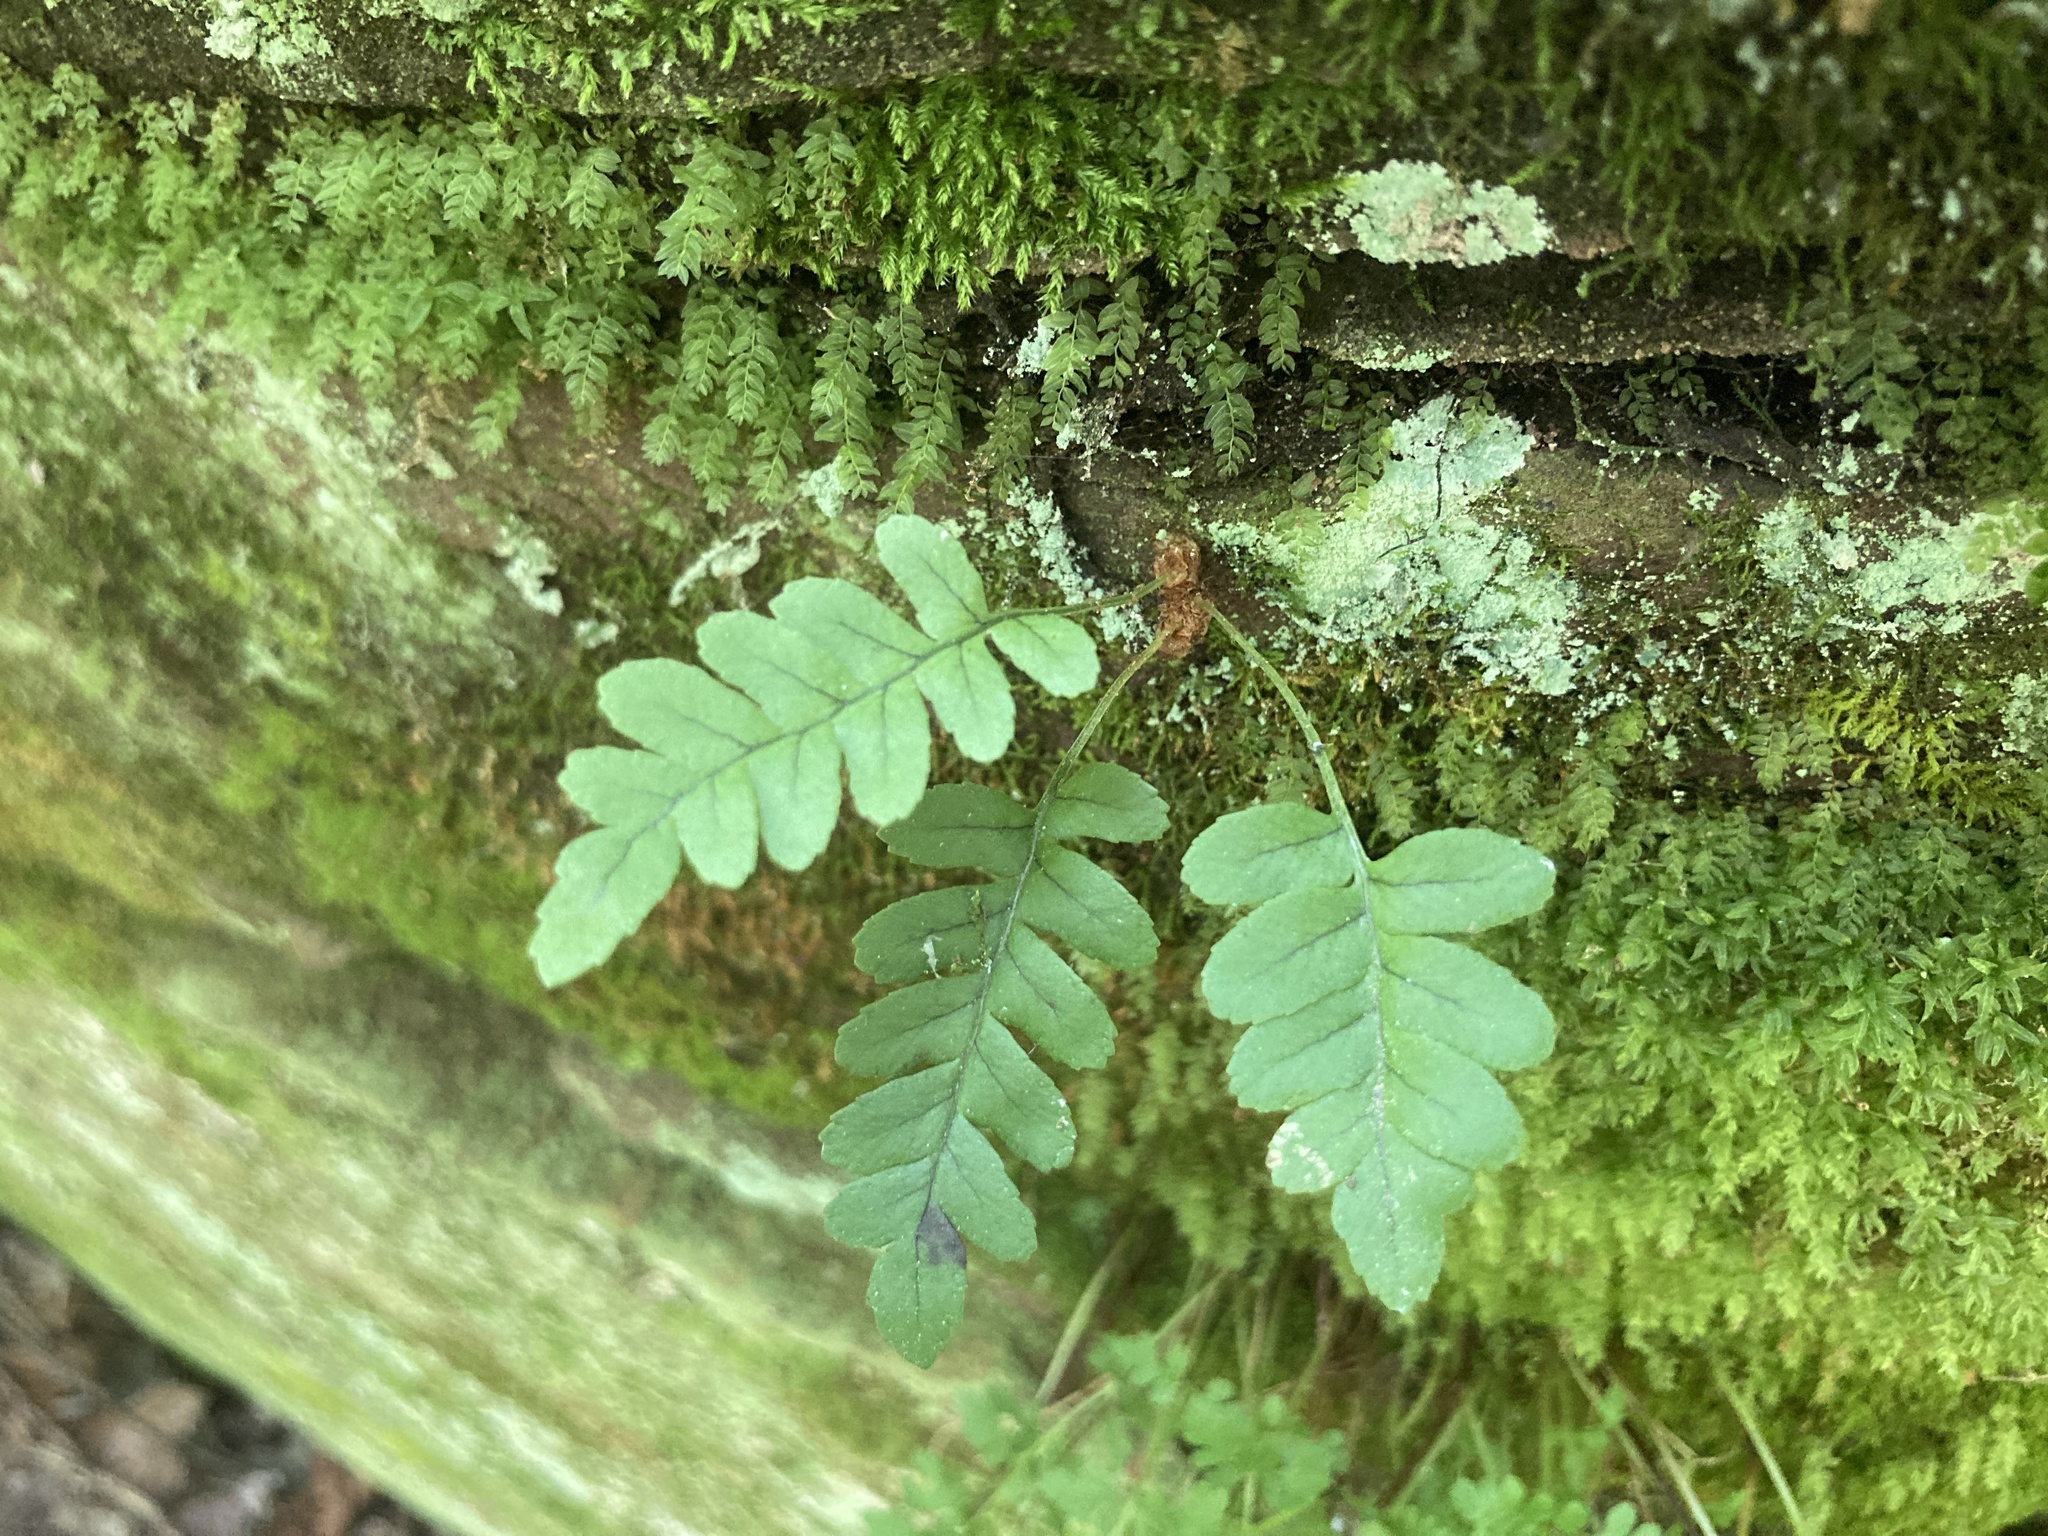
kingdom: Plantae
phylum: Tracheophyta
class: Polypodiopsida
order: Polypodiales
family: Polypodiaceae
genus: Polypodium
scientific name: Polypodium virginianum
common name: American wall fern
